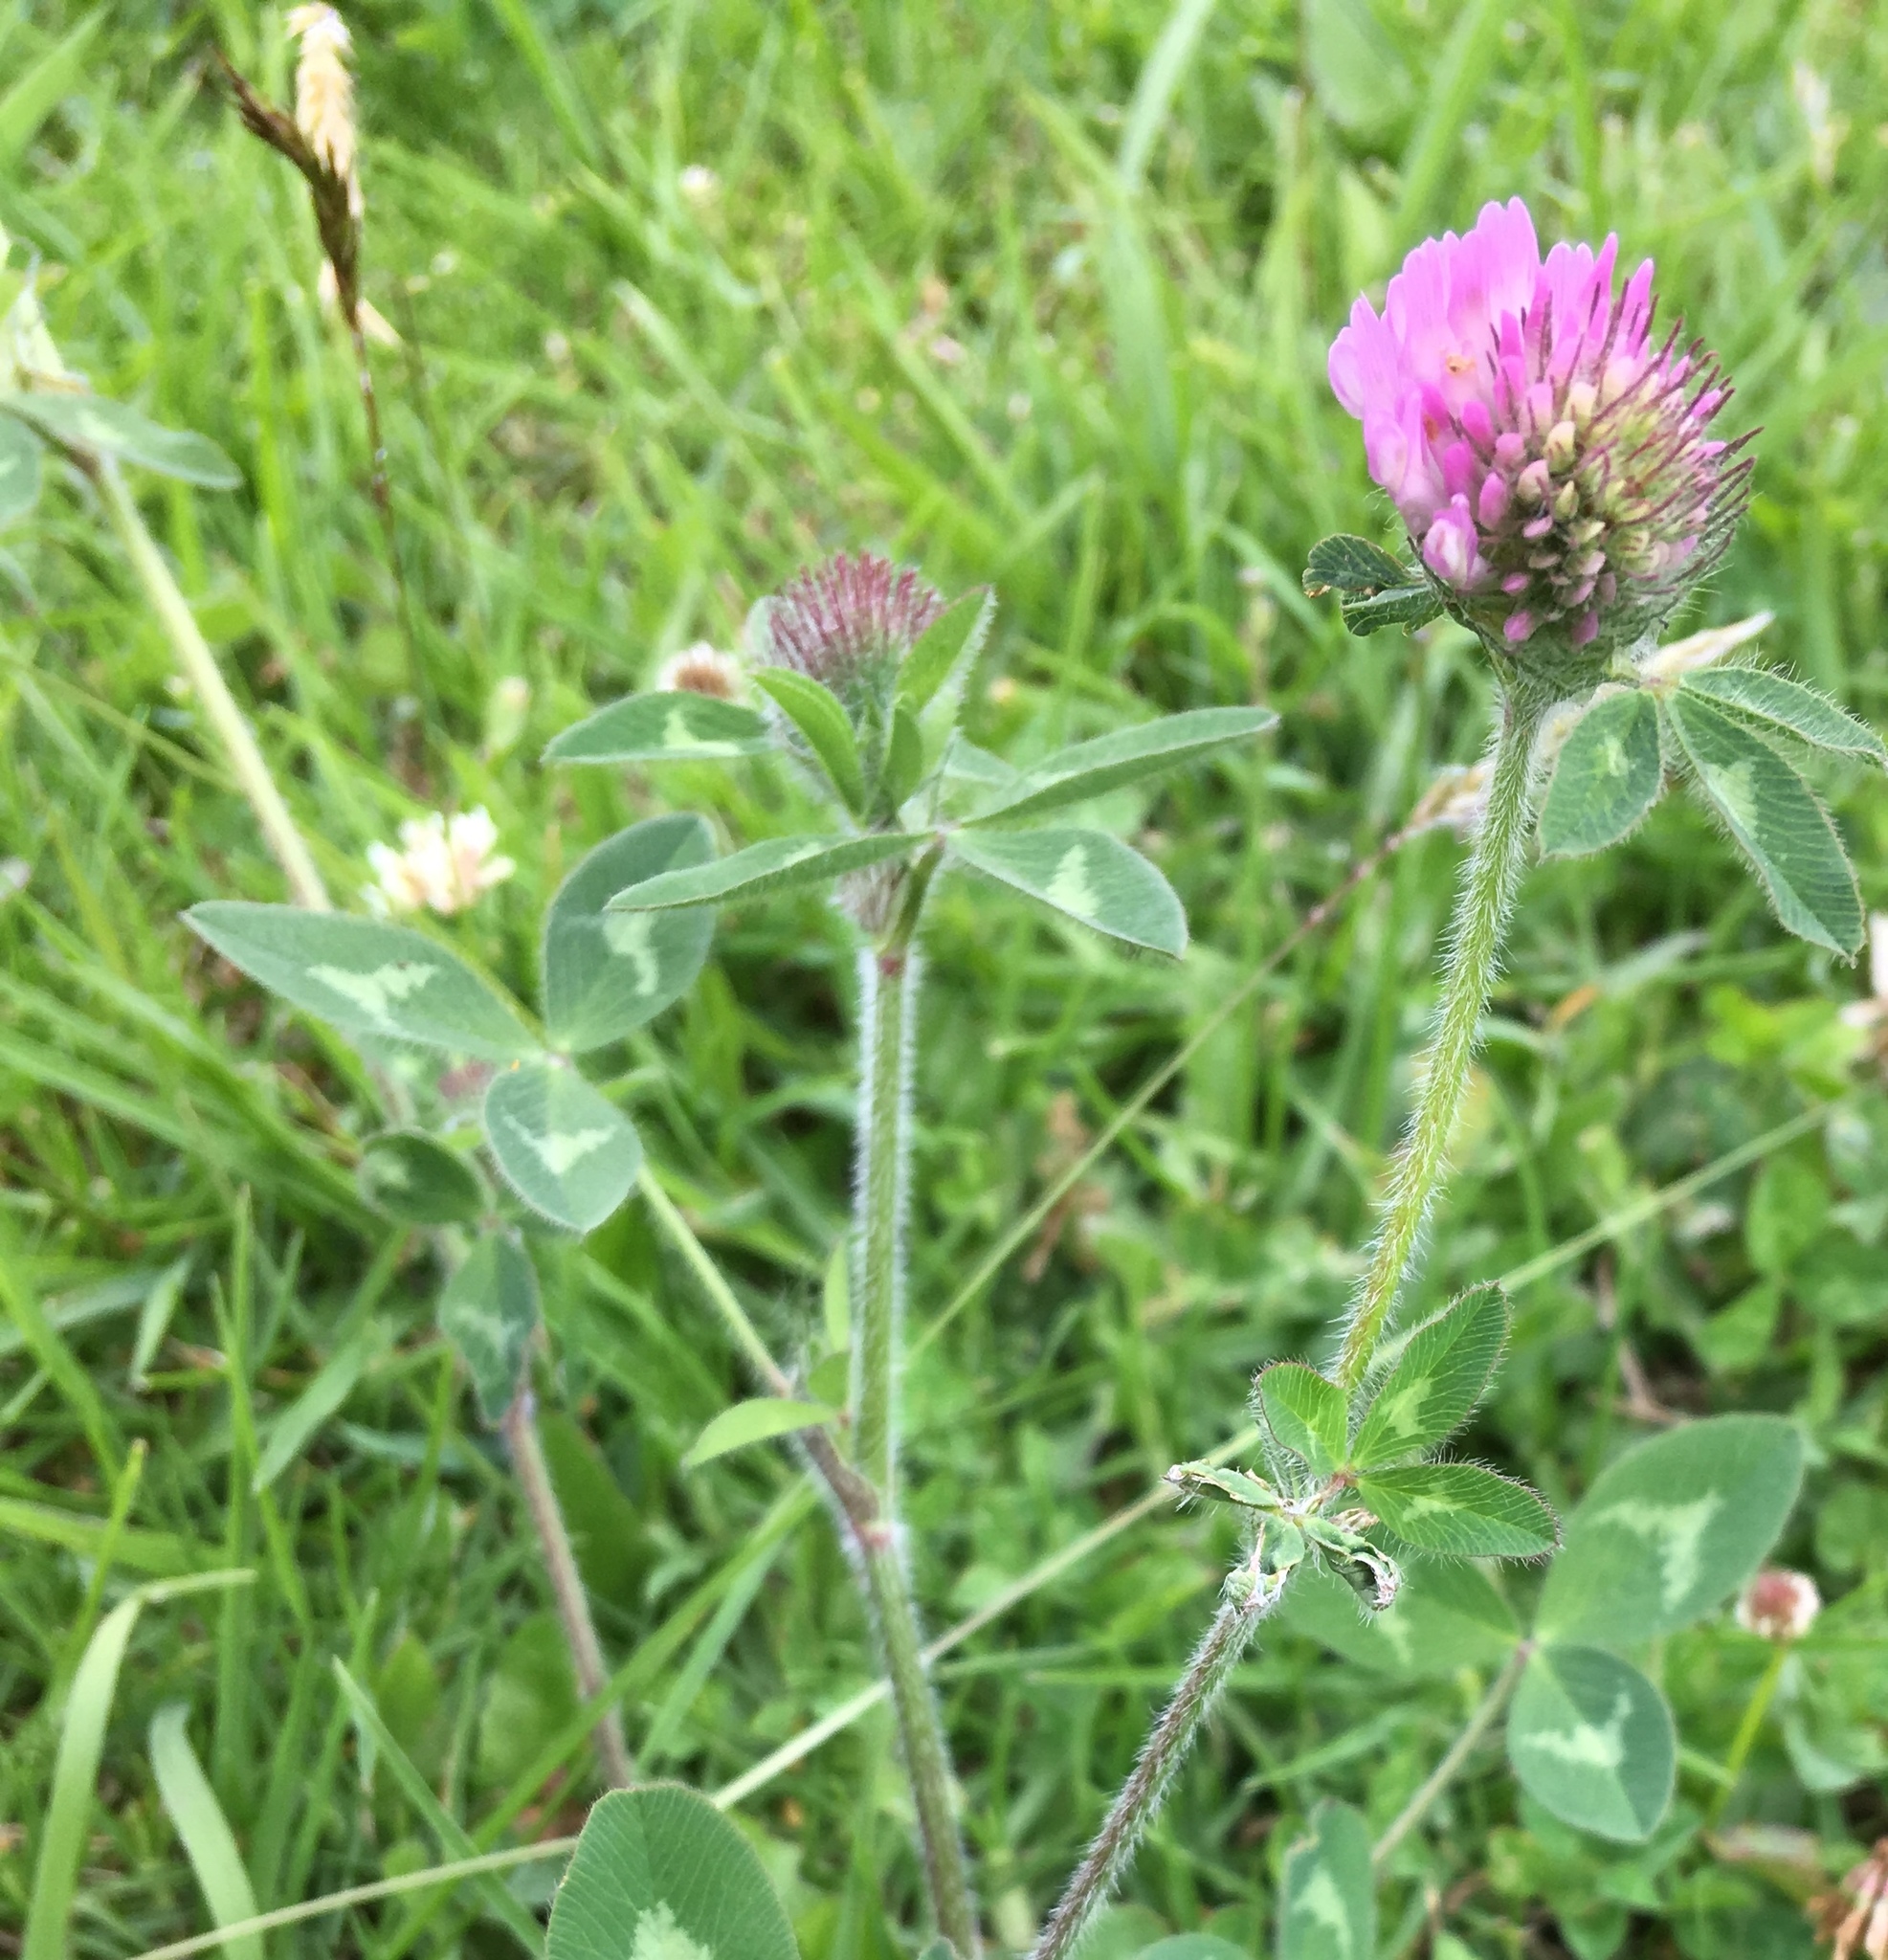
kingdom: Plantae
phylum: Tracheophyta
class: Magnoliopsida
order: Fabales
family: Fabaceae
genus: Trifolium
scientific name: Trifolium pratense
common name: Red clover
